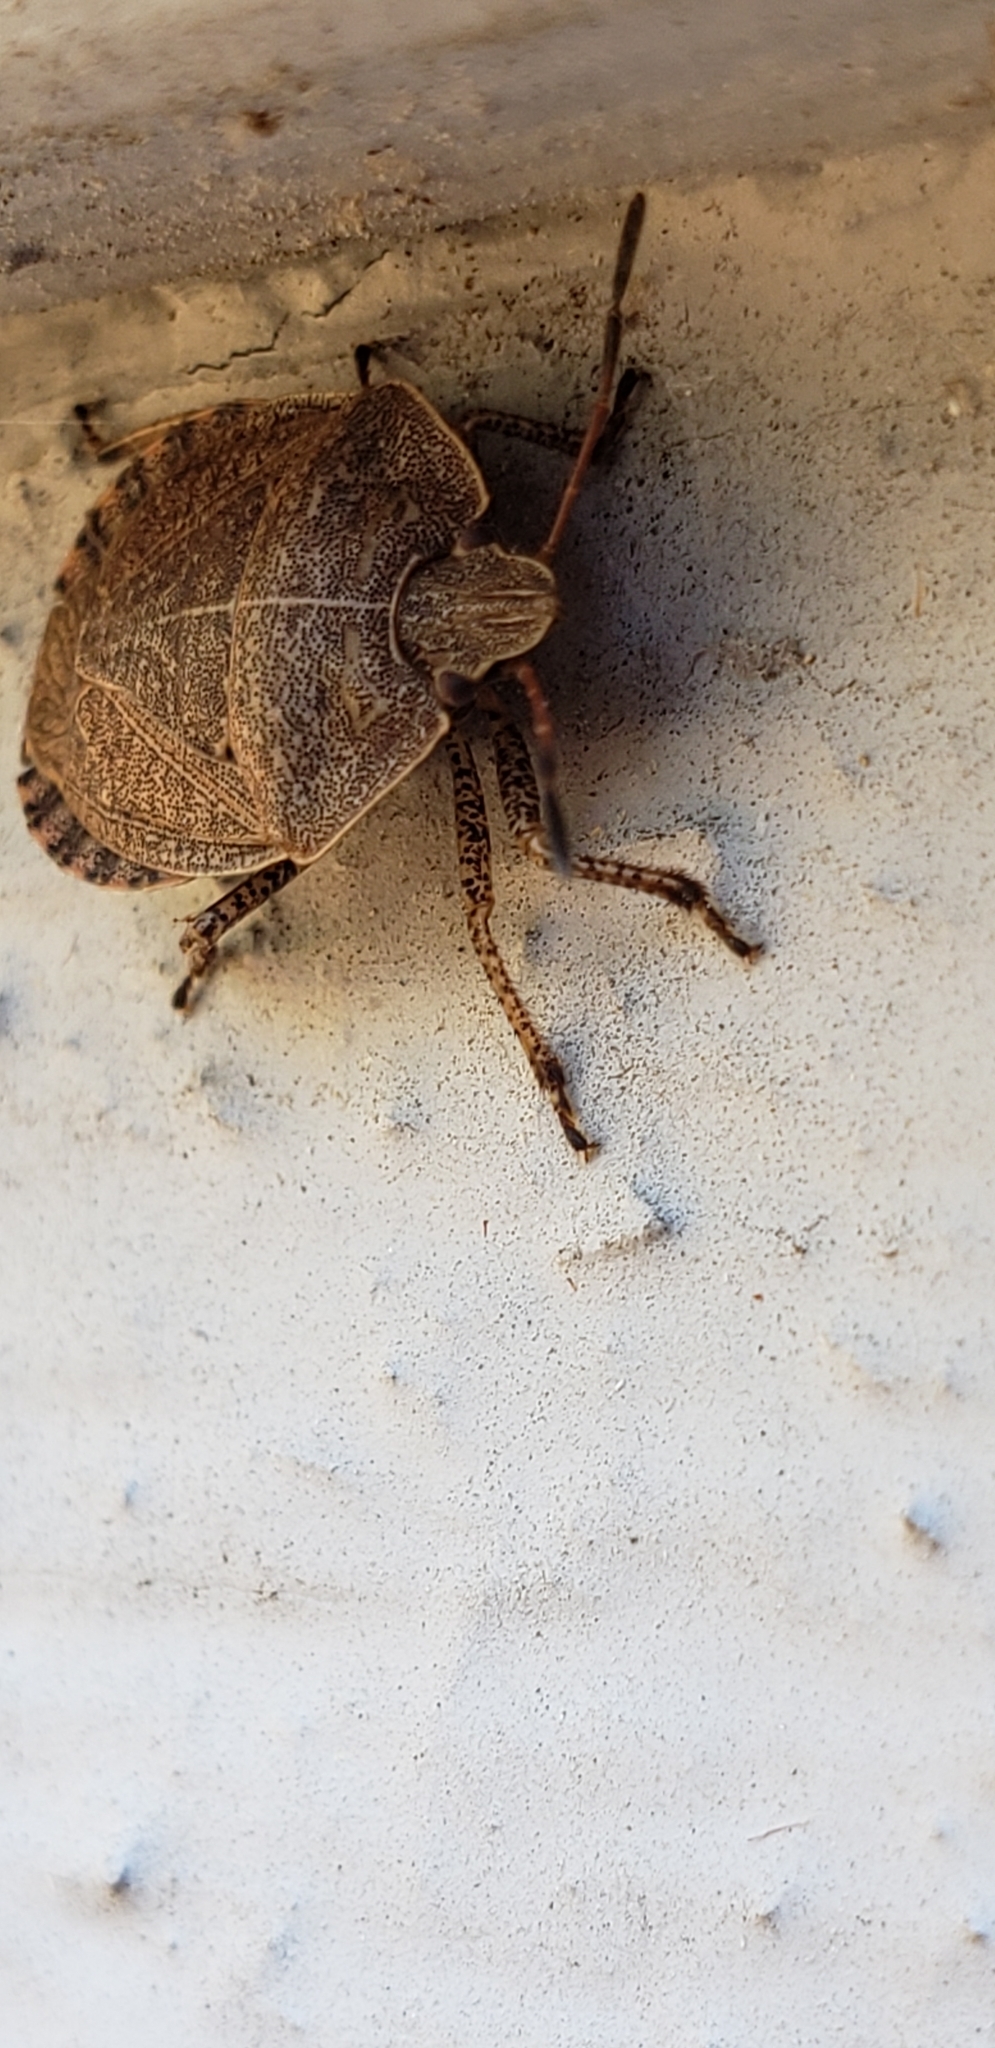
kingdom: Animalia
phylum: Arthropoda
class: Insecta
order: Hemiptera
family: Pentatomidae
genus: Menecles
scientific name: Menecles insertus
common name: Elf shoe stink bug
